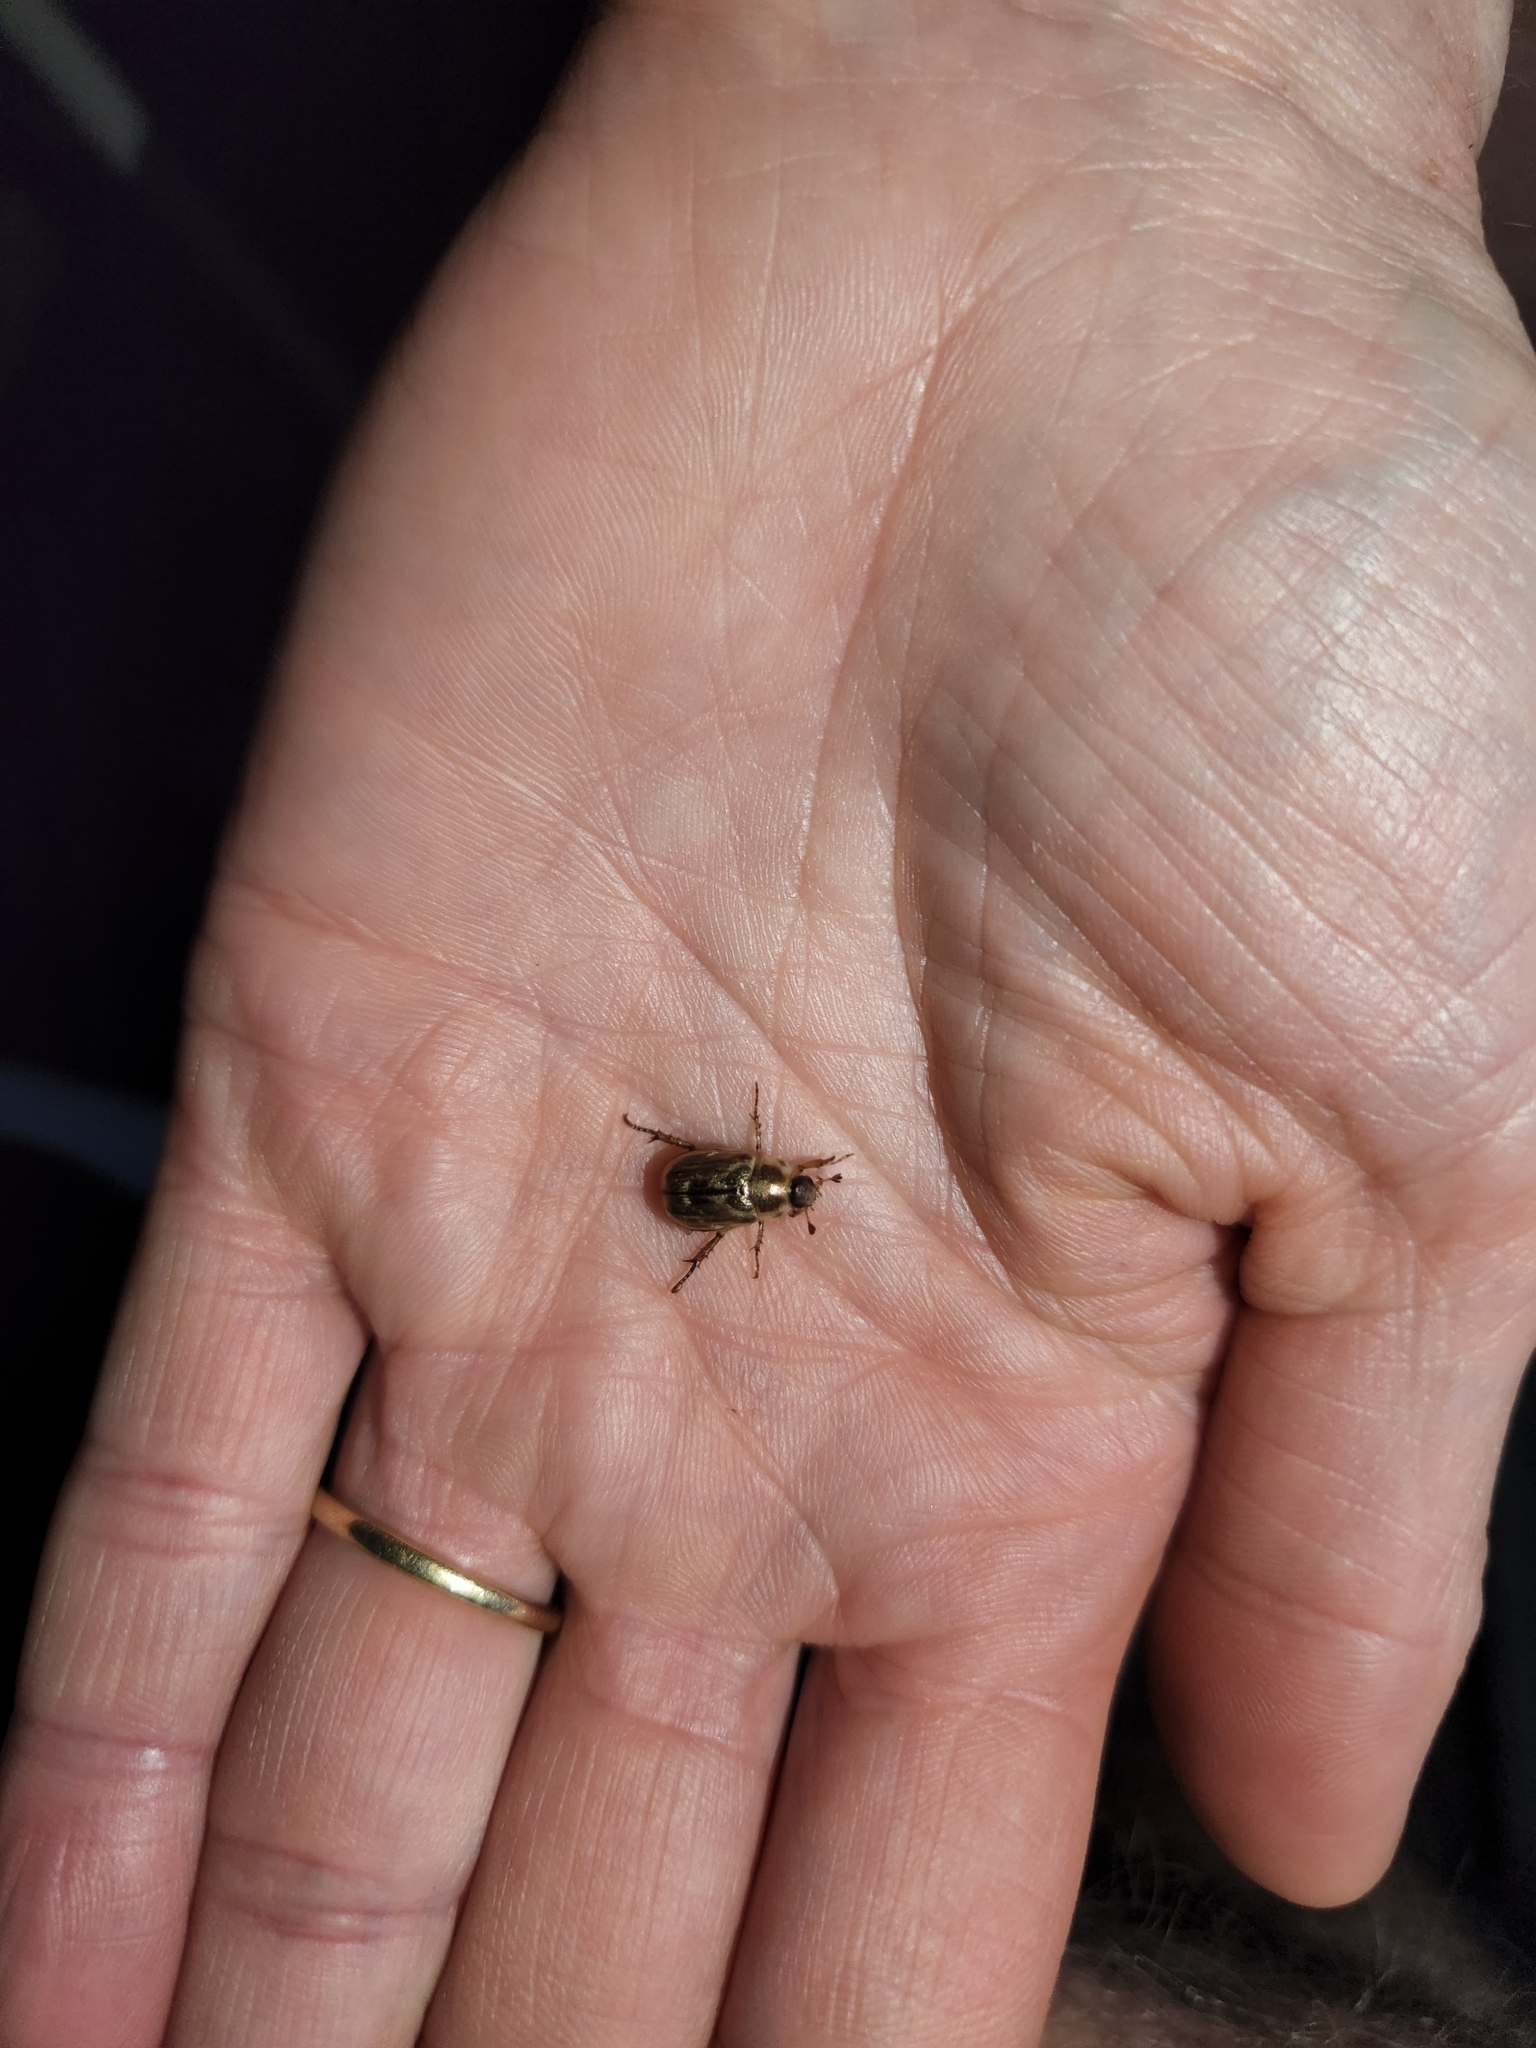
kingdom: Animalia
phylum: Arthropoda
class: Insecta
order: Coleoptera
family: Scarabaeidae
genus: Exomala
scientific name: Exomala orientalis
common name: Oriental beetle
